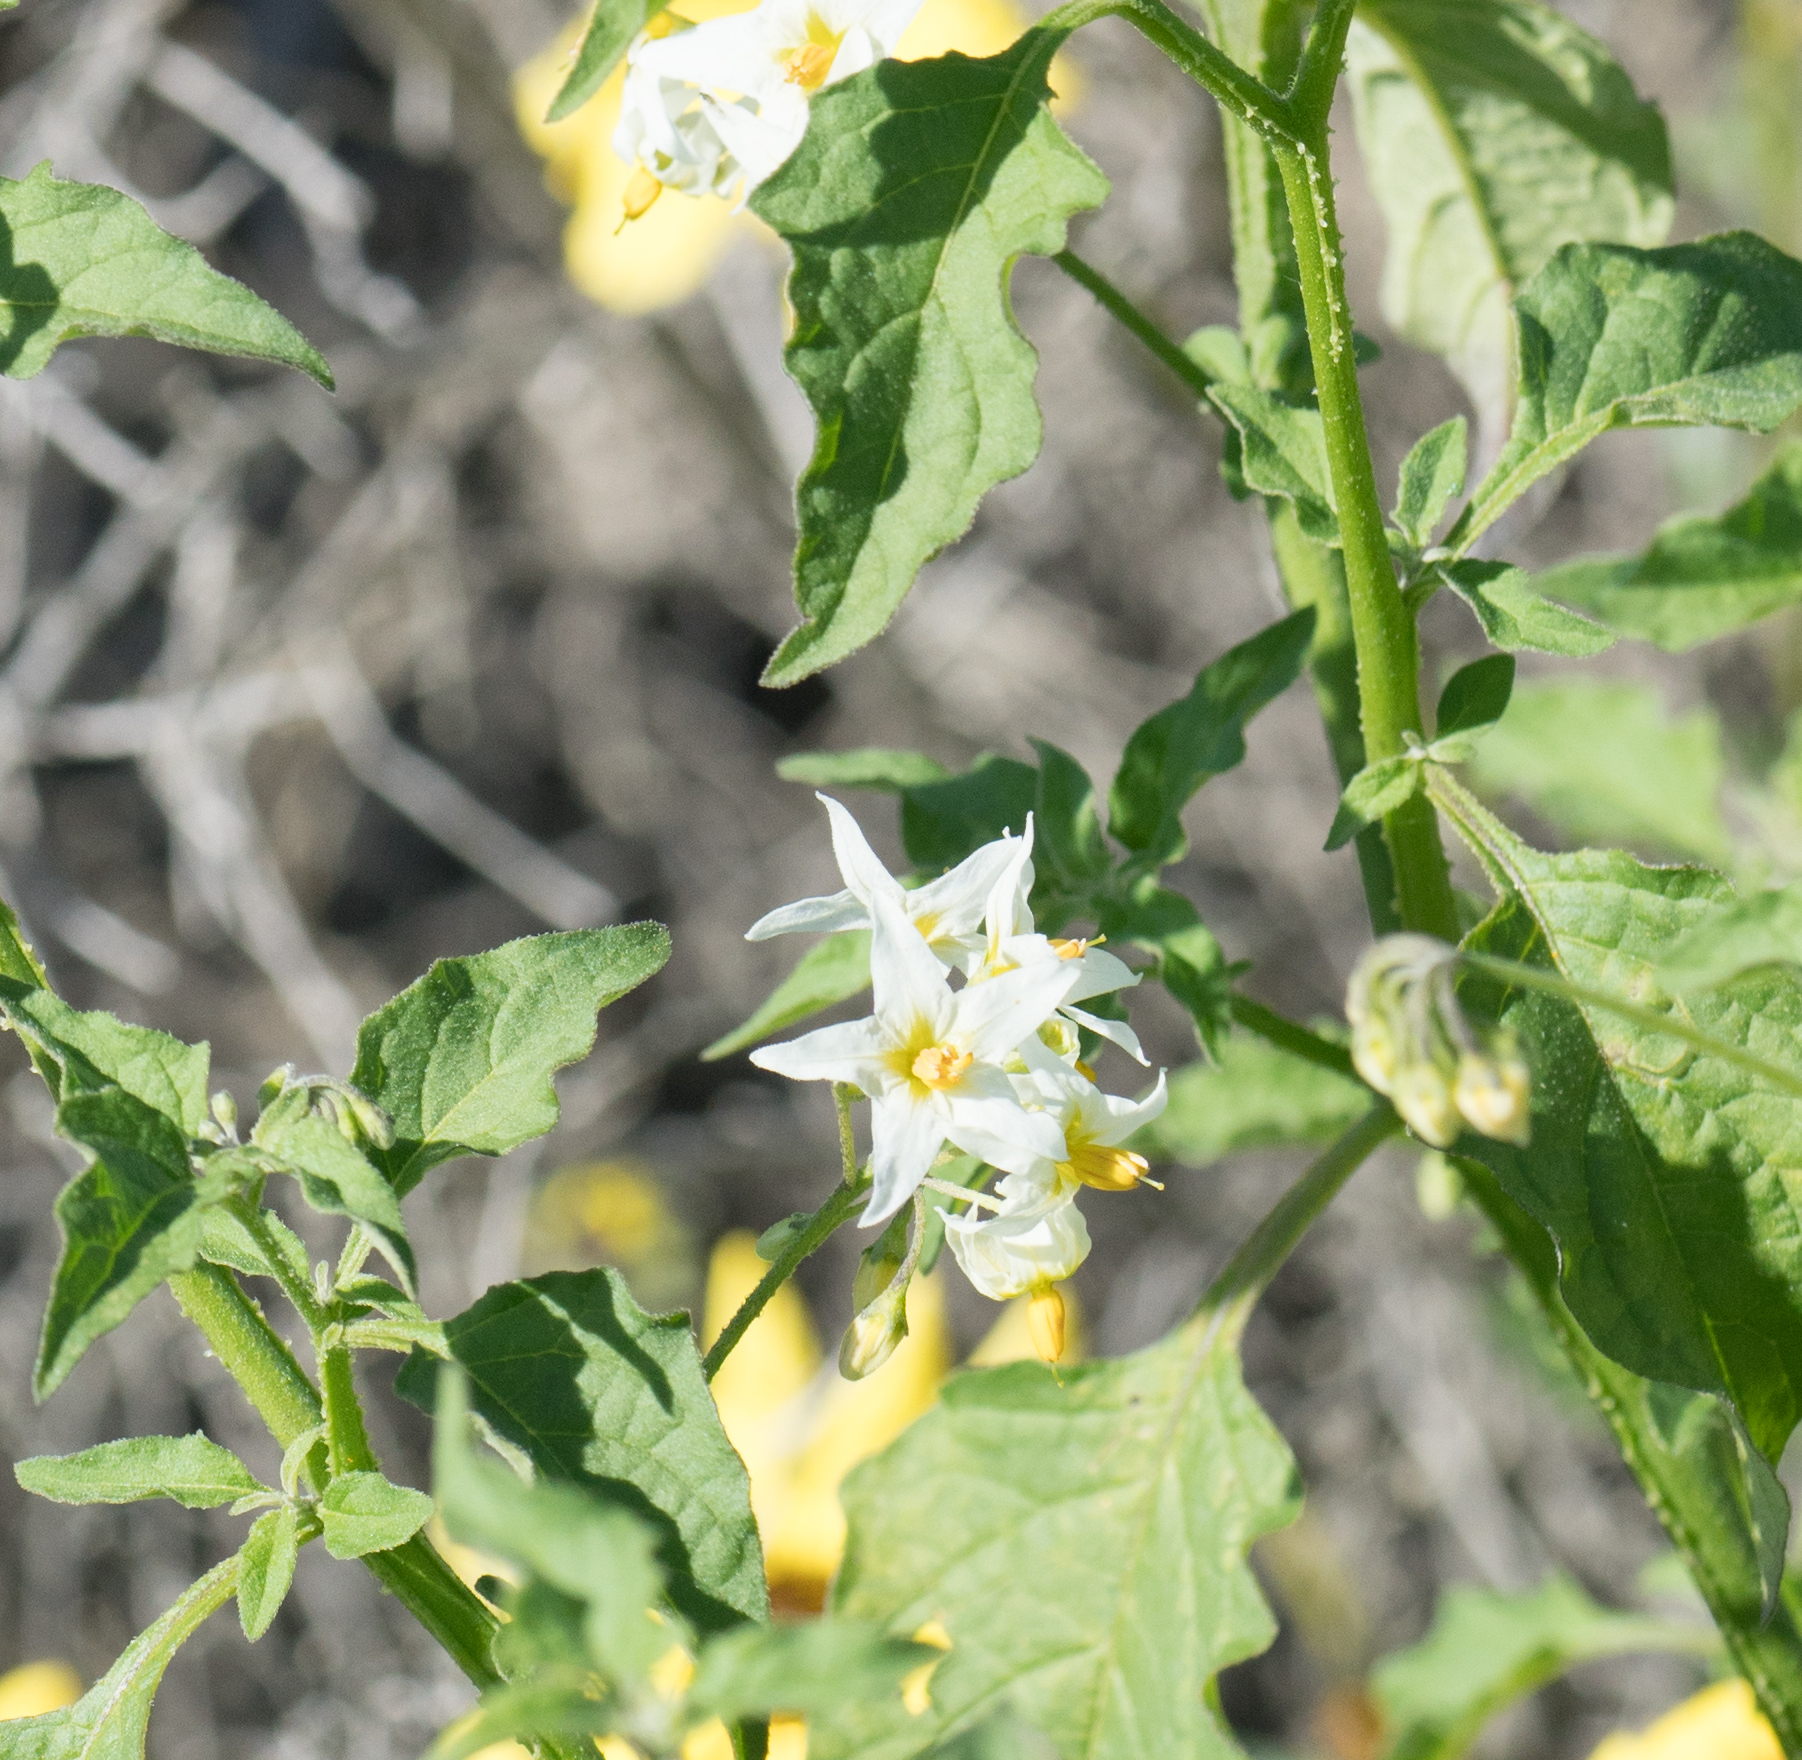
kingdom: Plantae
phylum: Tracheophyta
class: Magnoliopsida
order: Solanales
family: Solanaceae
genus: Solanum
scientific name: Solanum douglasii
